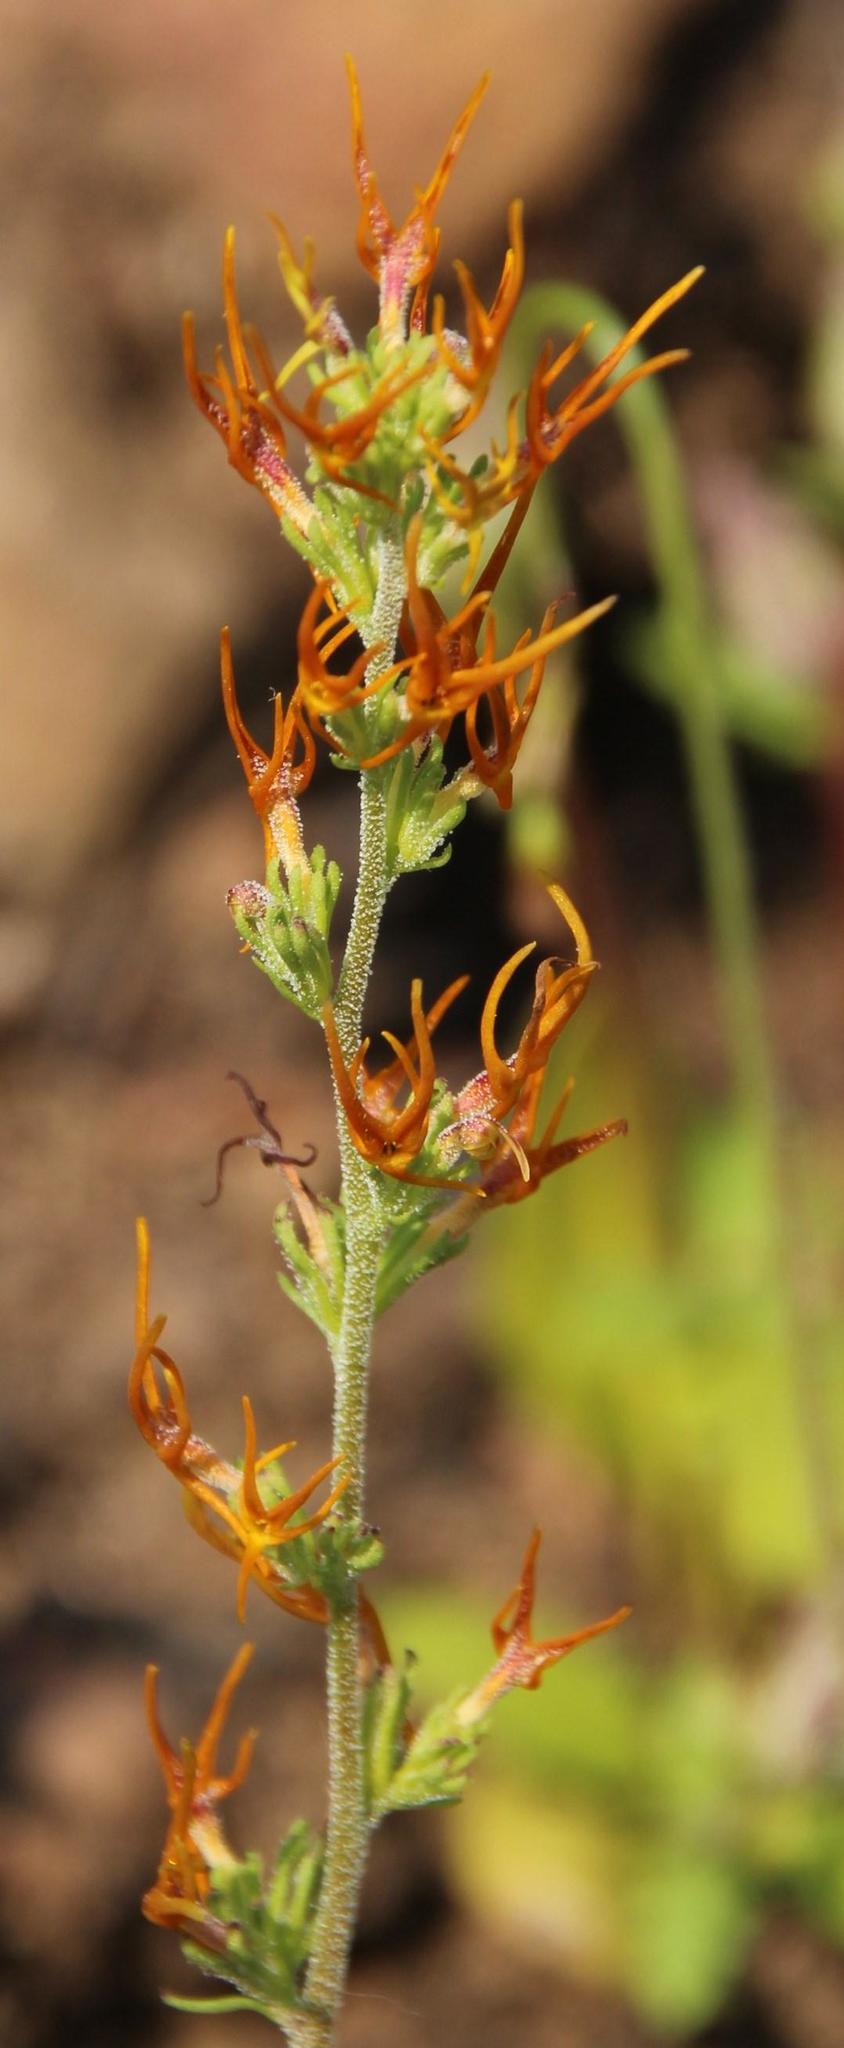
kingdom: Plantae
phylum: Tracheophyta
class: Magnoliopsida
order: Lamiales
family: Scrophulariaceae
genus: Manulea
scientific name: Manulea cheiranthus
